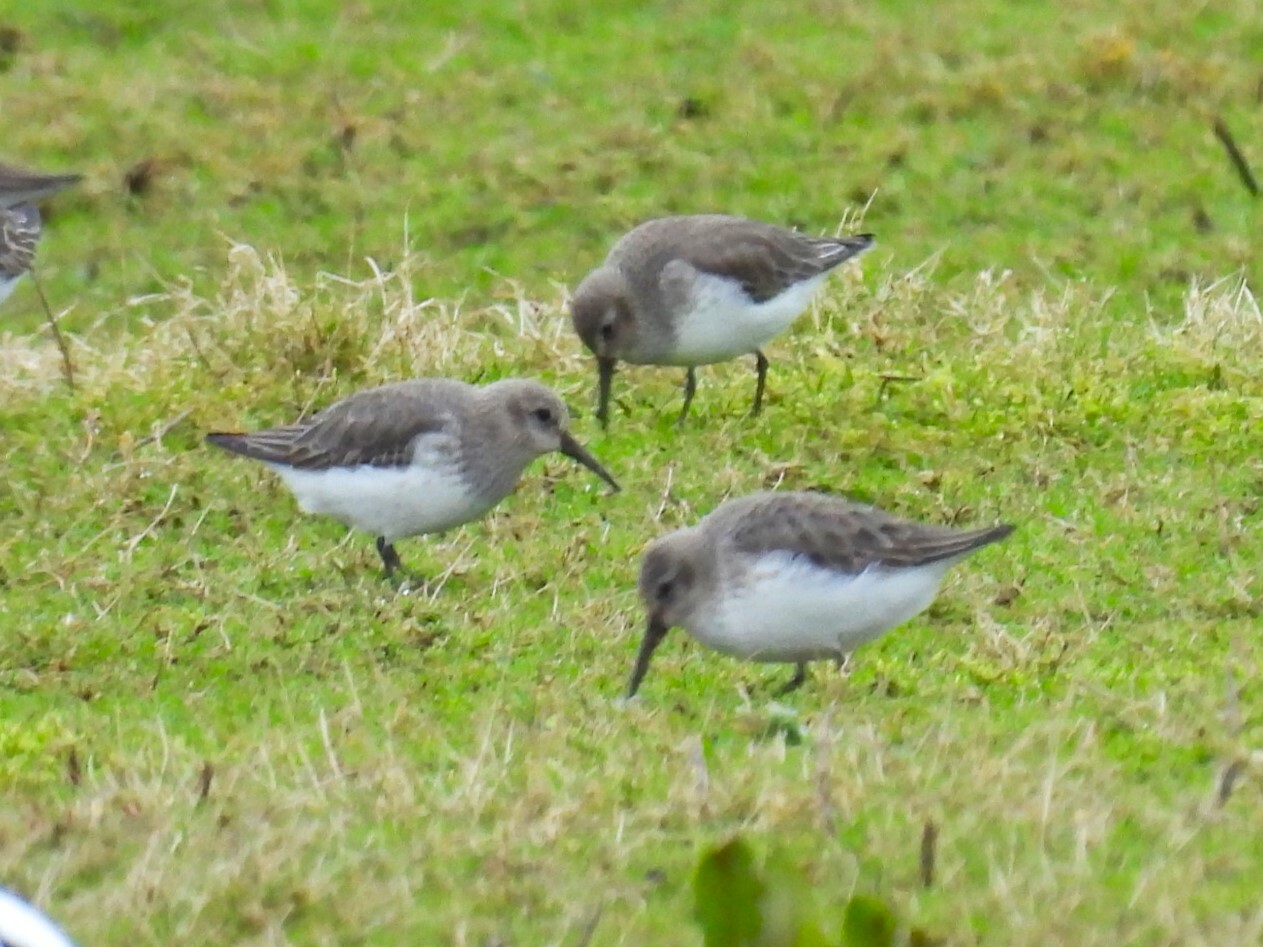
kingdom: Animalia
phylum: Chordata
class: Aves
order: Charadriiformes
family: Scolopacidae
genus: Calidris
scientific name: Calidris alpina
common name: Dunlin
